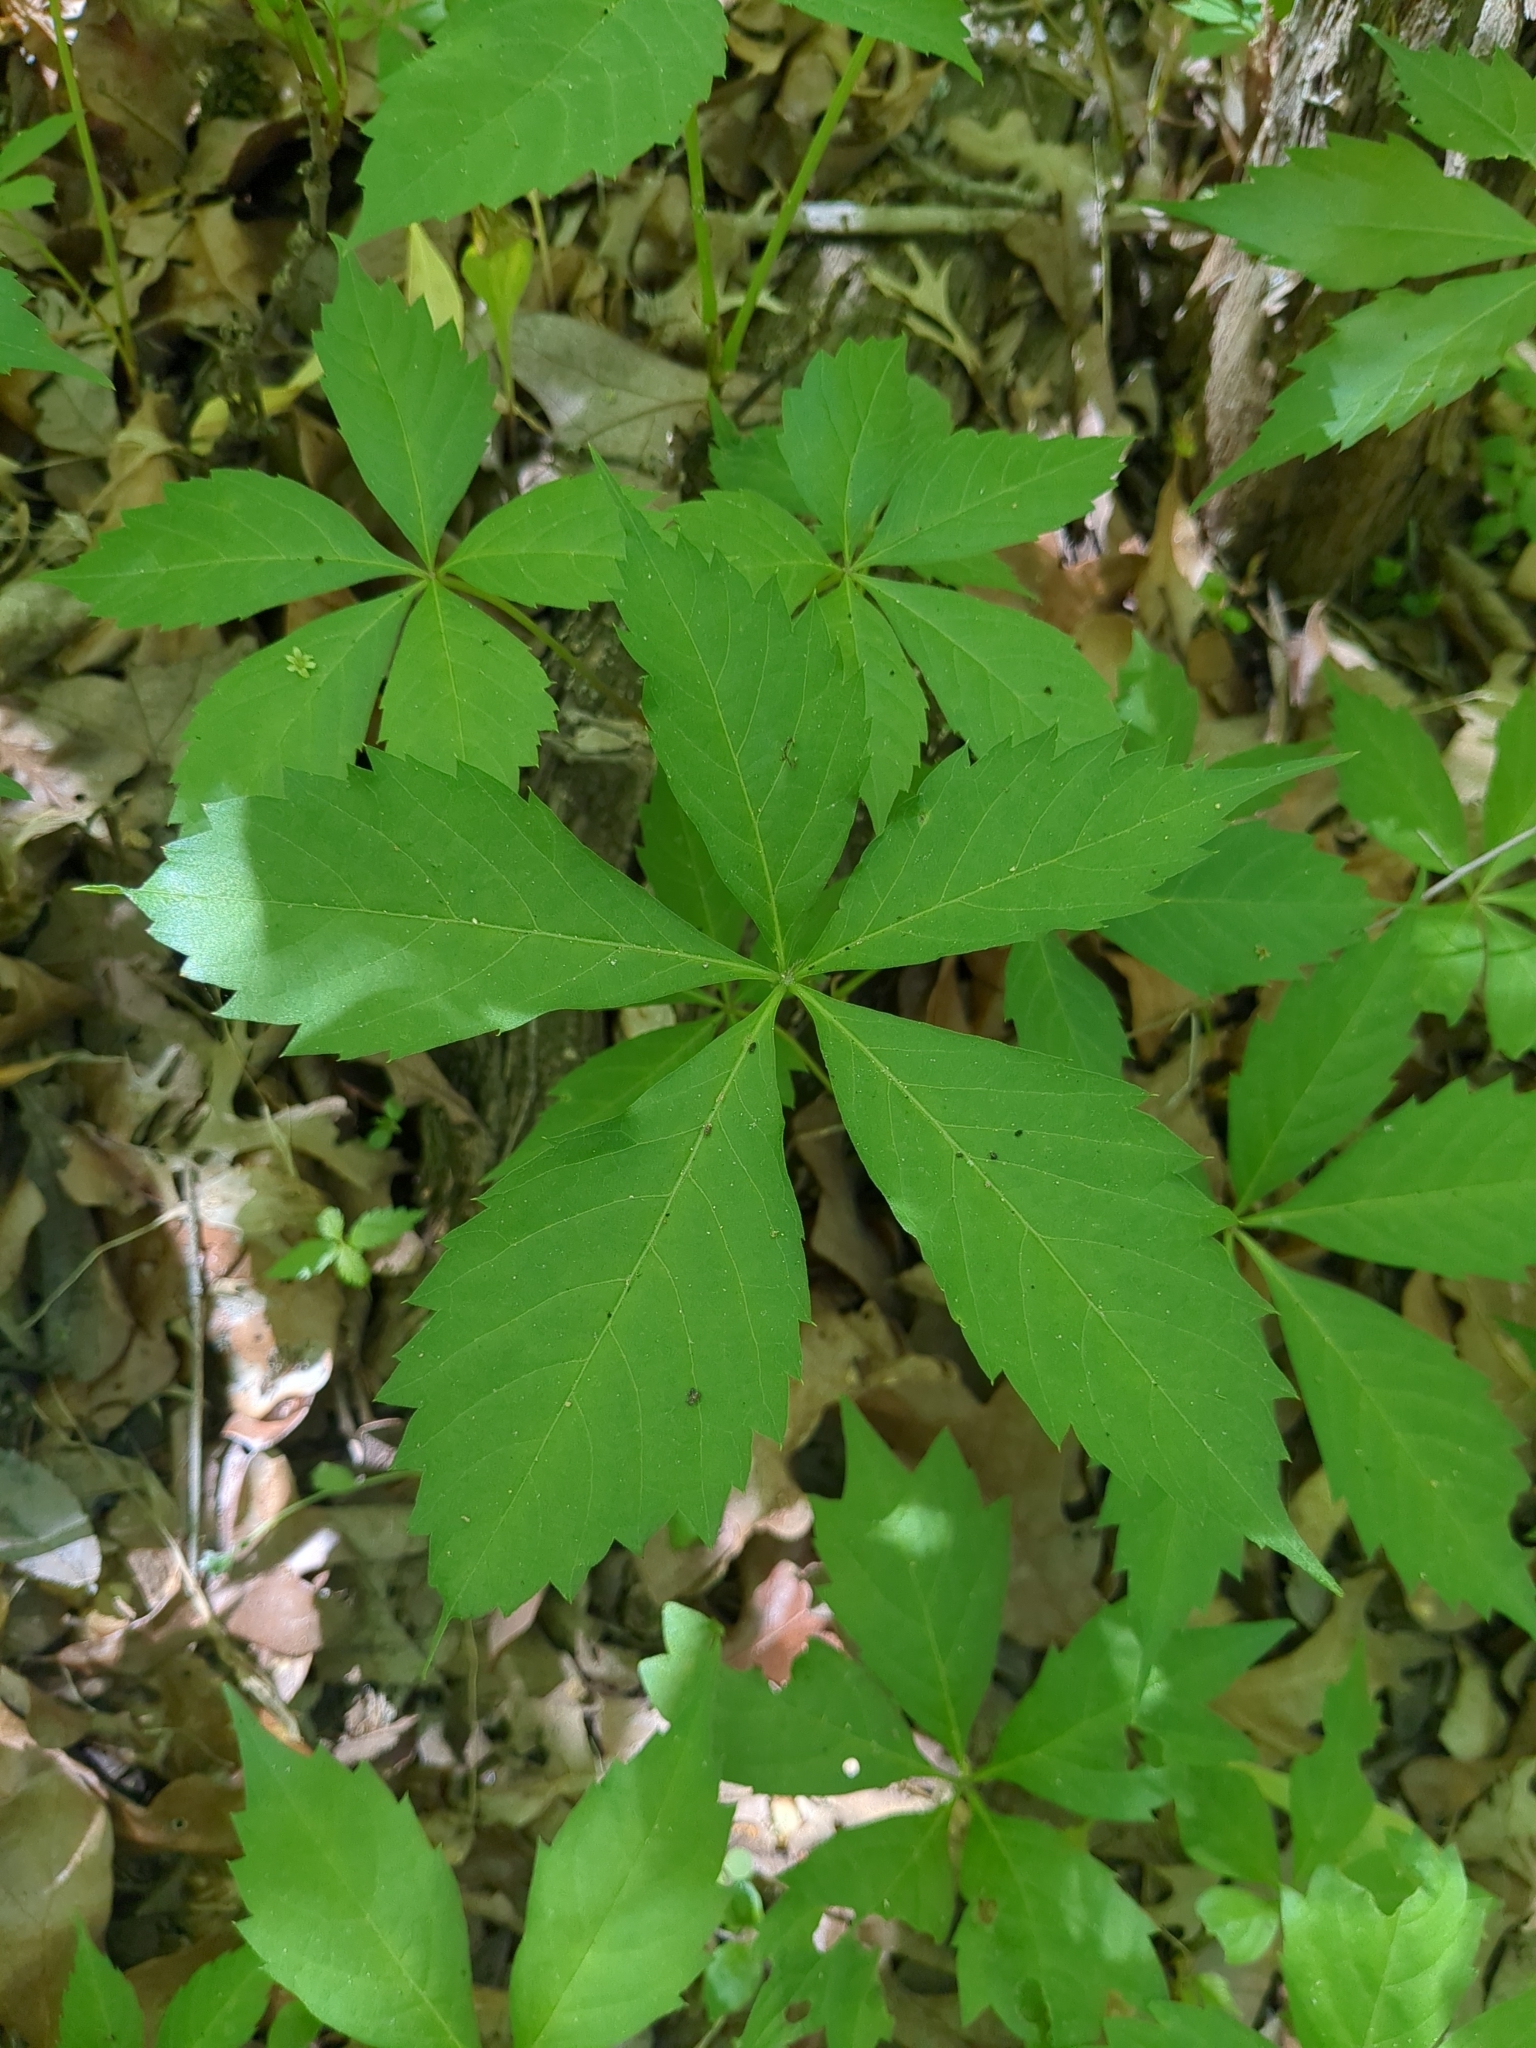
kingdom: Plantae
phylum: Tracheophyta
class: Magnoliopsida
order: Vitales
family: Vitaceae
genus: Parthenocissus
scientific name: Parthenocissus quinquefolia
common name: Virginia-creeper
